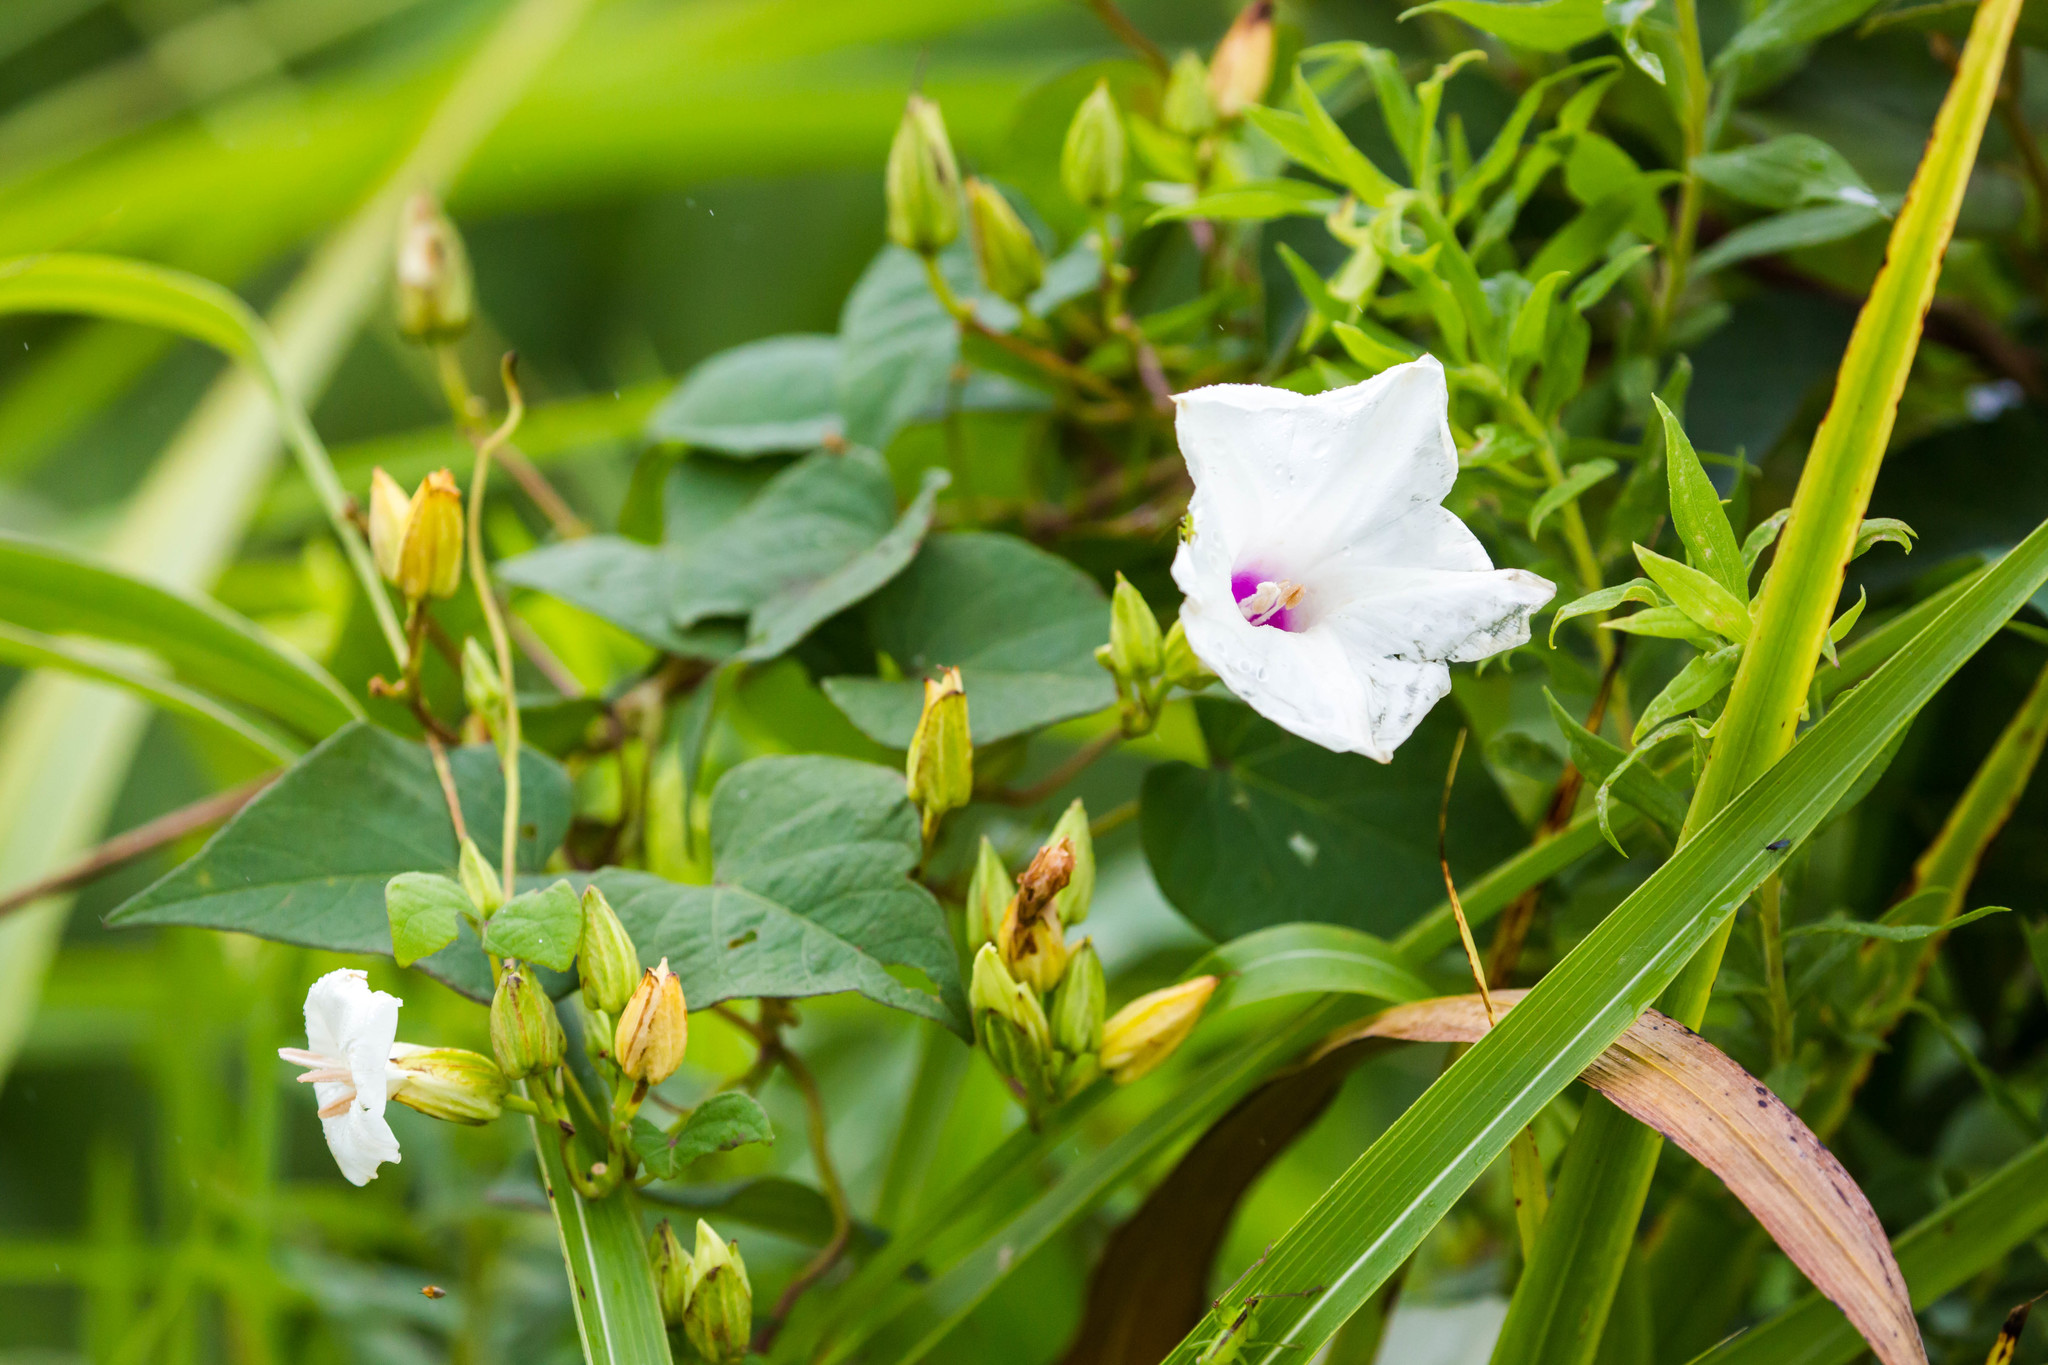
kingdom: Plantae
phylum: Tracheophyta
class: Magnoliopsida
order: Solanales
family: Convolvulaceae
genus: Ipomoea
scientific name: Ipomoea pandurata
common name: Man-of-the-earth
